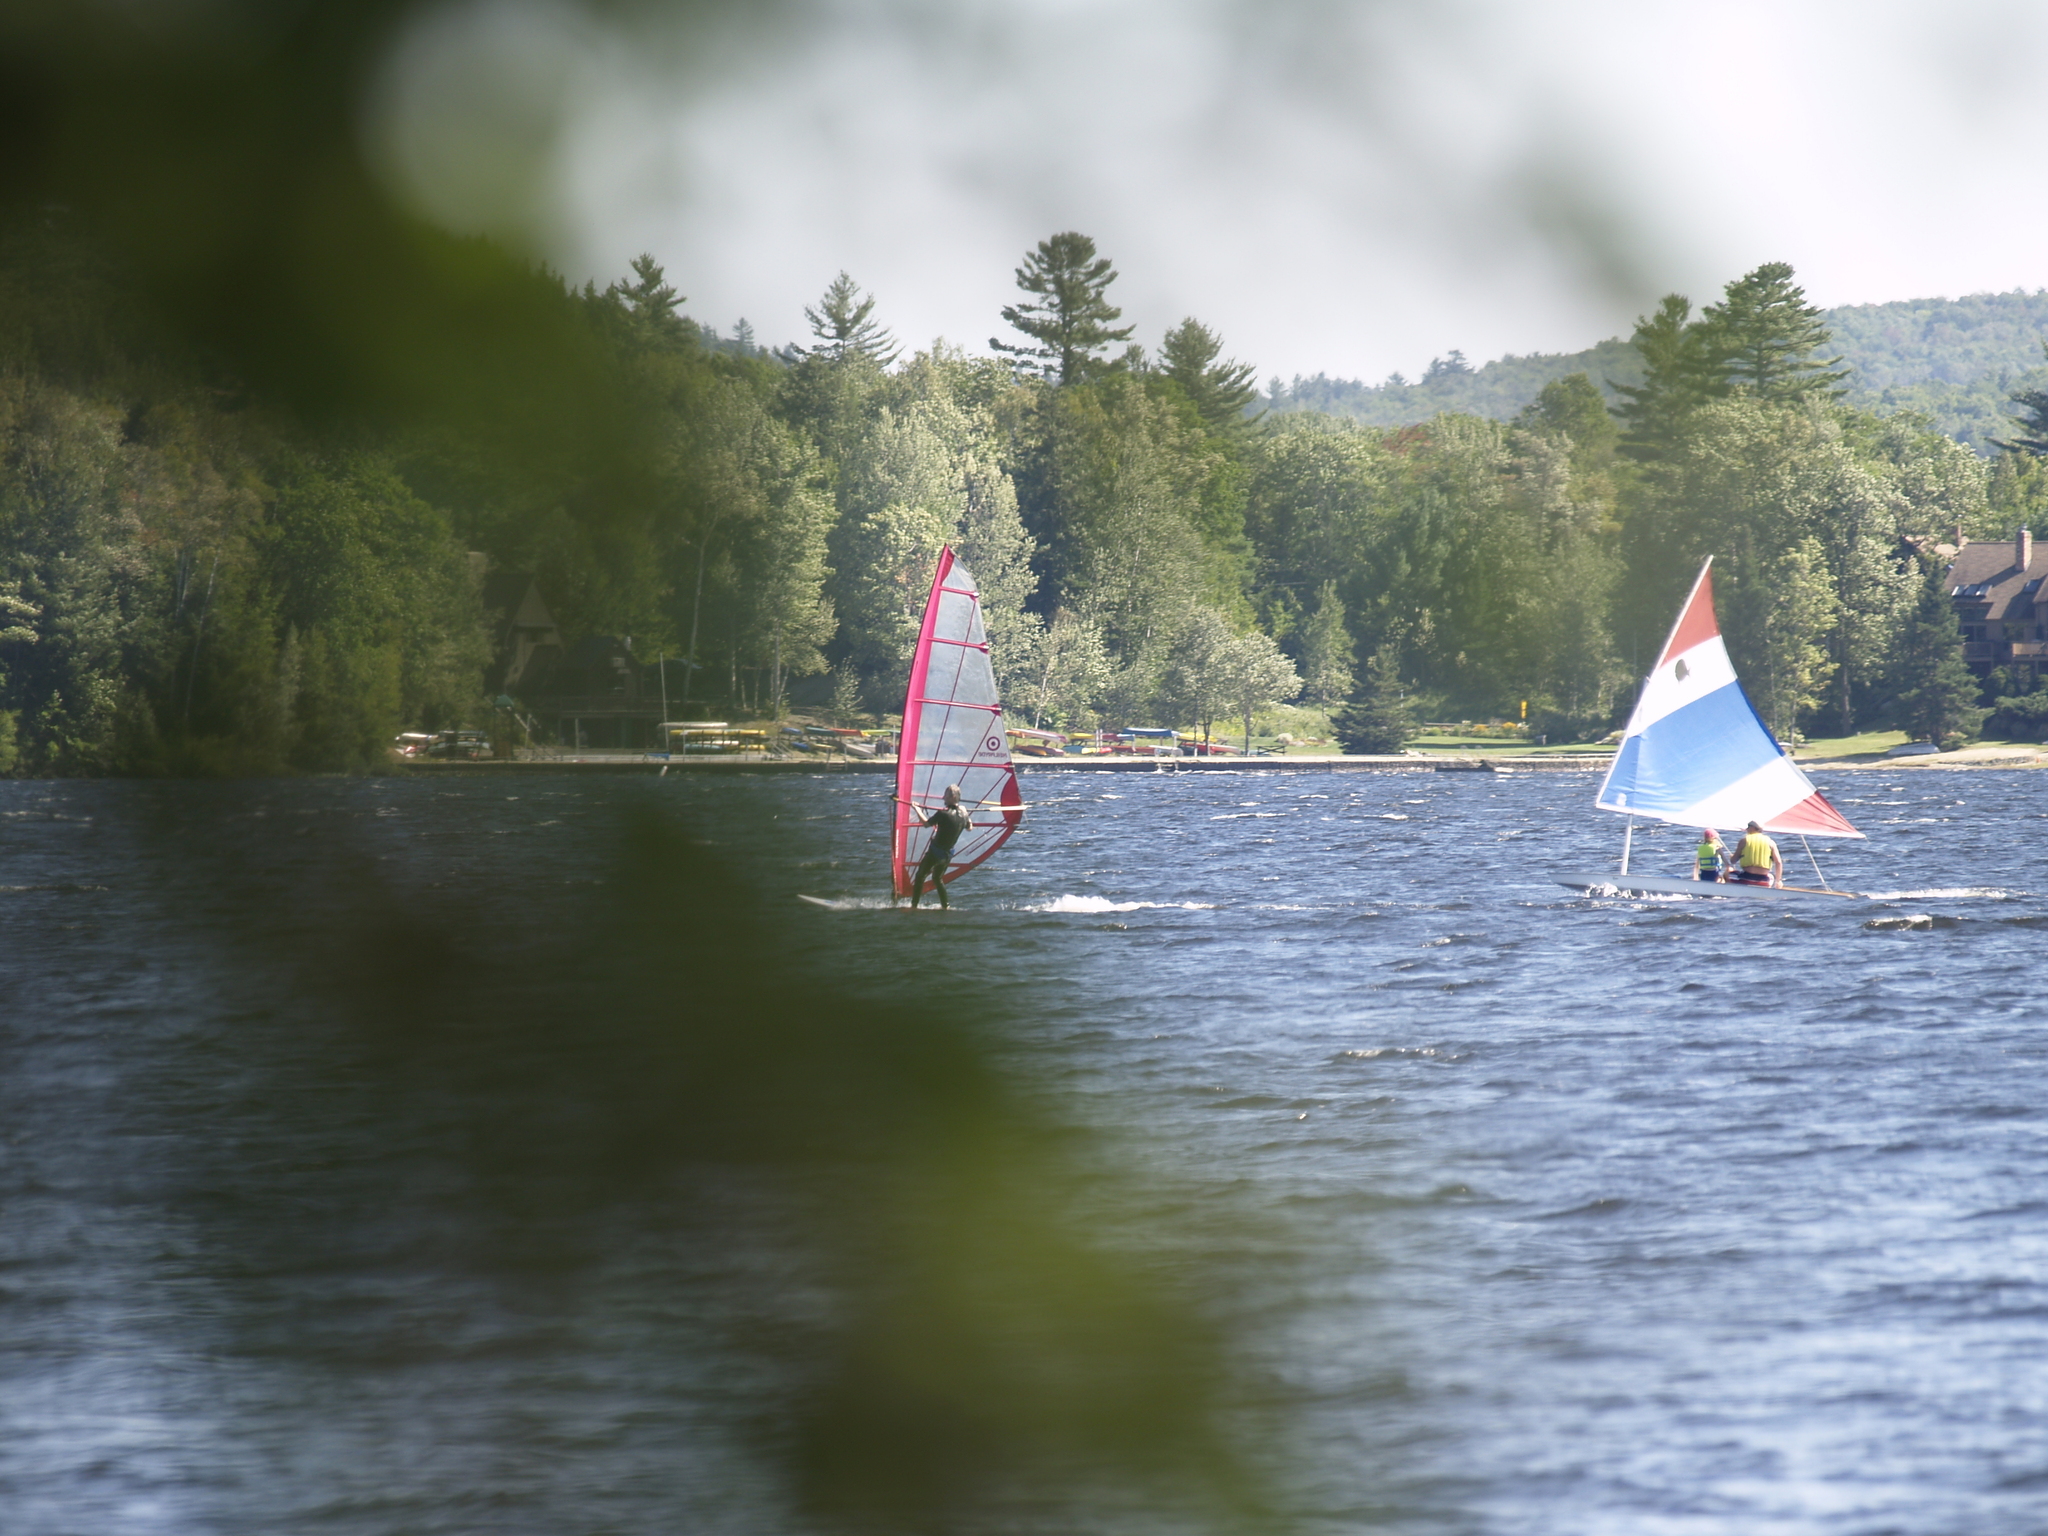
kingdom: Plantae
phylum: Tracheophyta
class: Pinopsida
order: Pinales
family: Pinaceae
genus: Pinus
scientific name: Pinus strobus
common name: Weymouth pine
